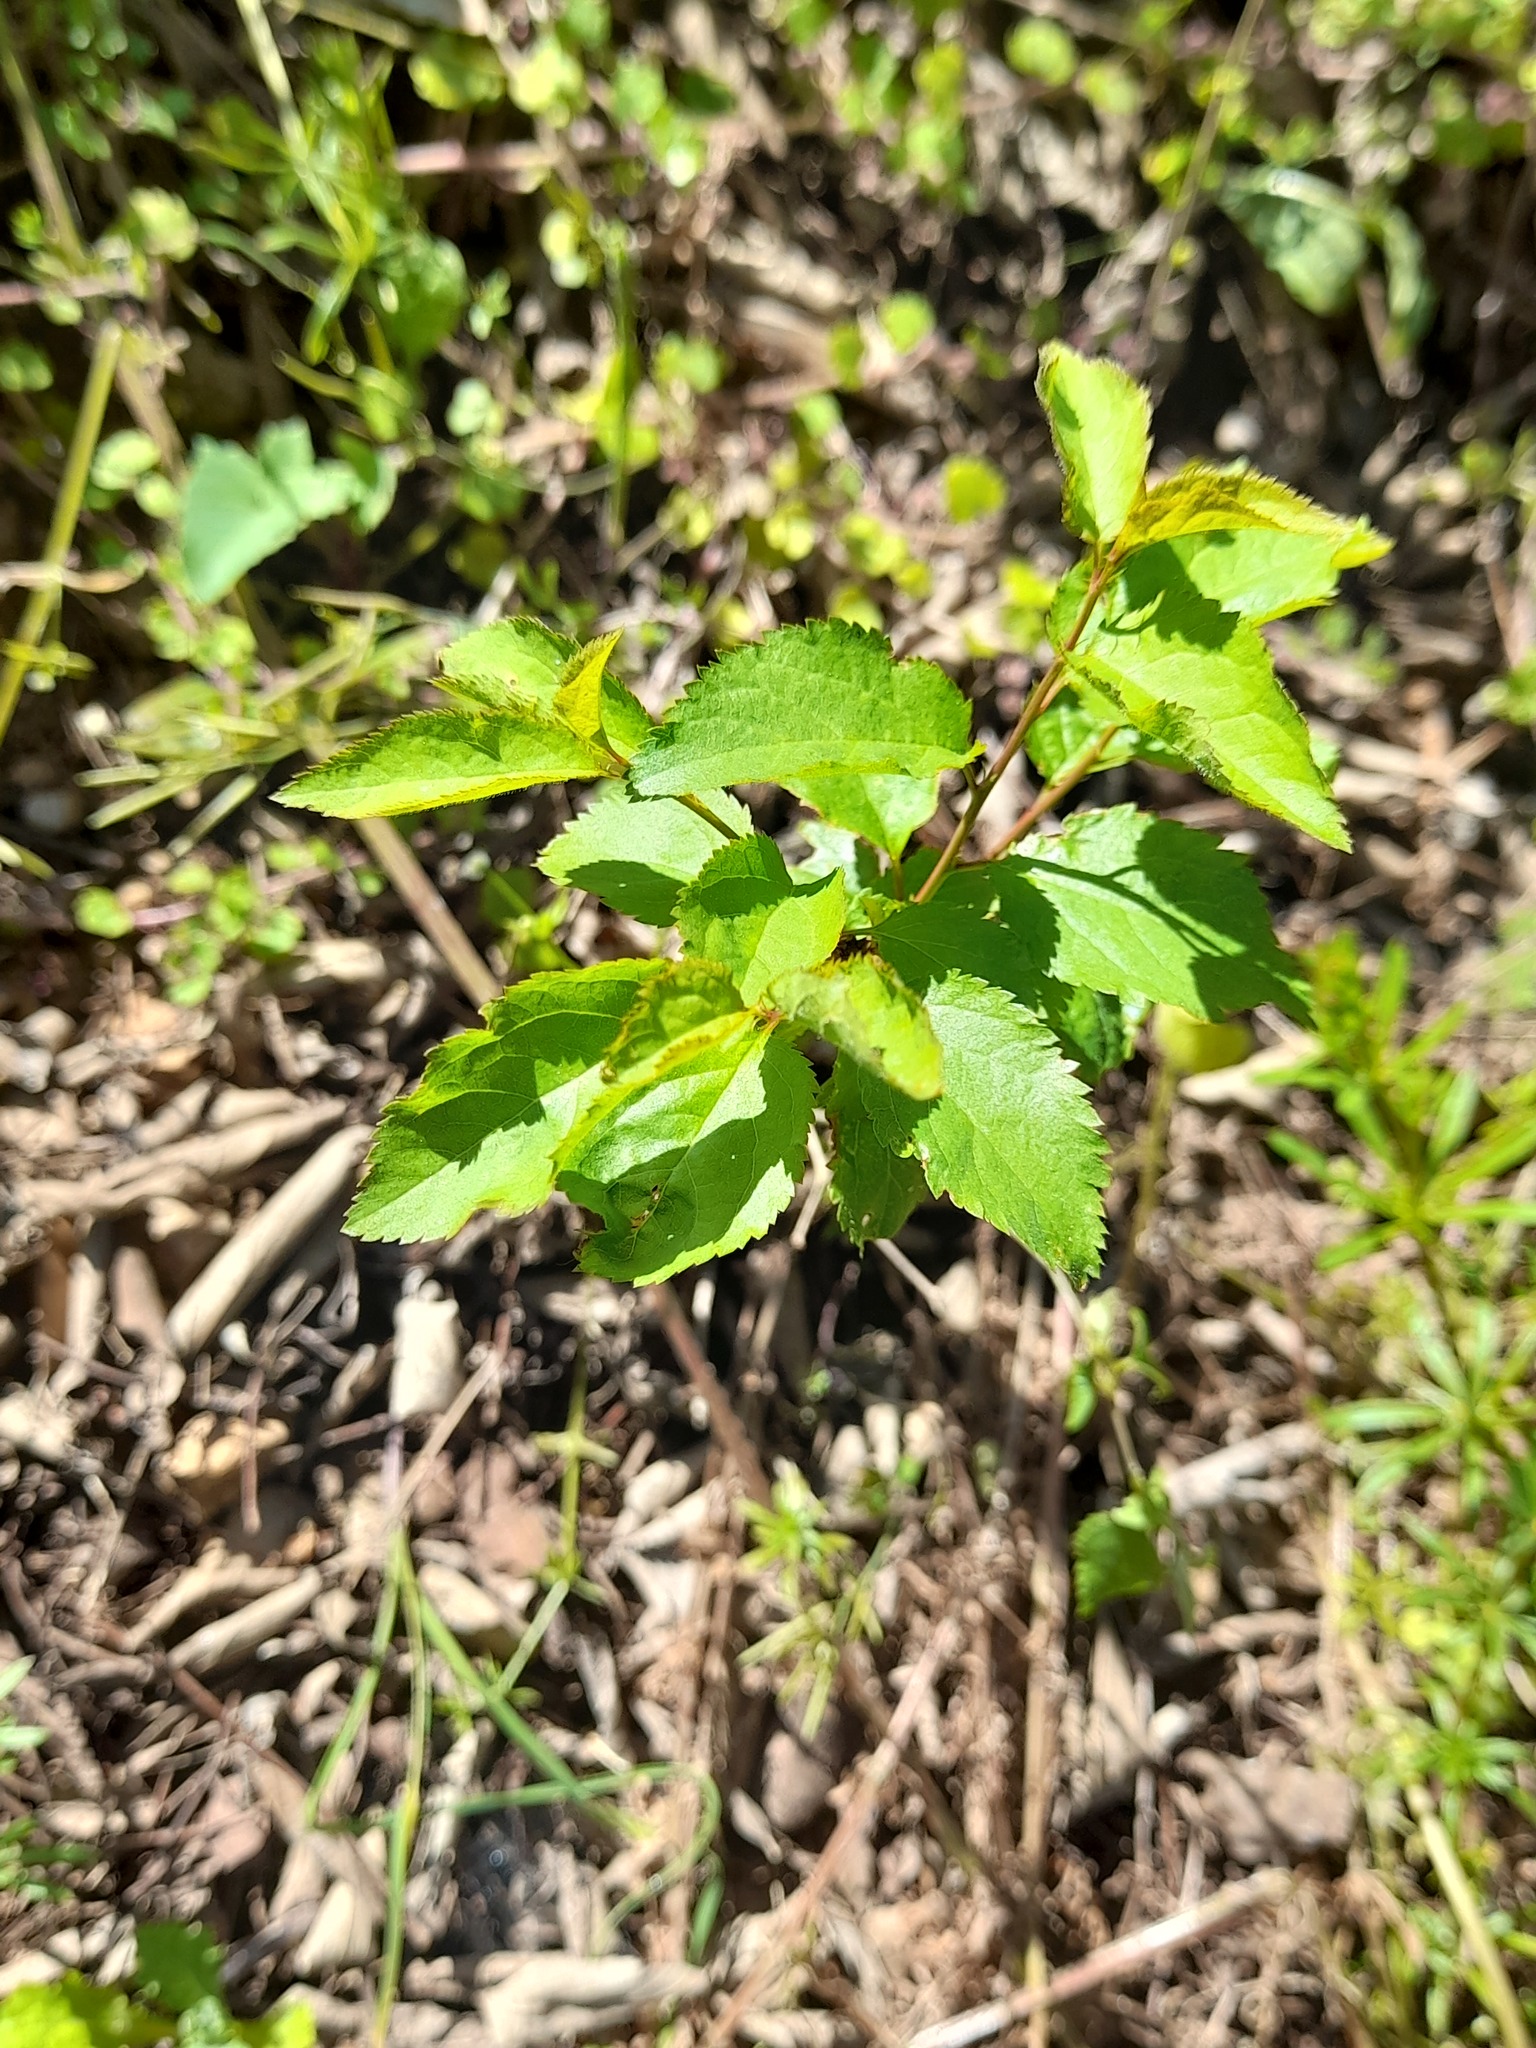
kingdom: Plantae
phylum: Tracheophyta
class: Magnoliopsida
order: Rosales
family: Rosaceae
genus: Prunus
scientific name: Prunus cerasifera
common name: Cherry plum
